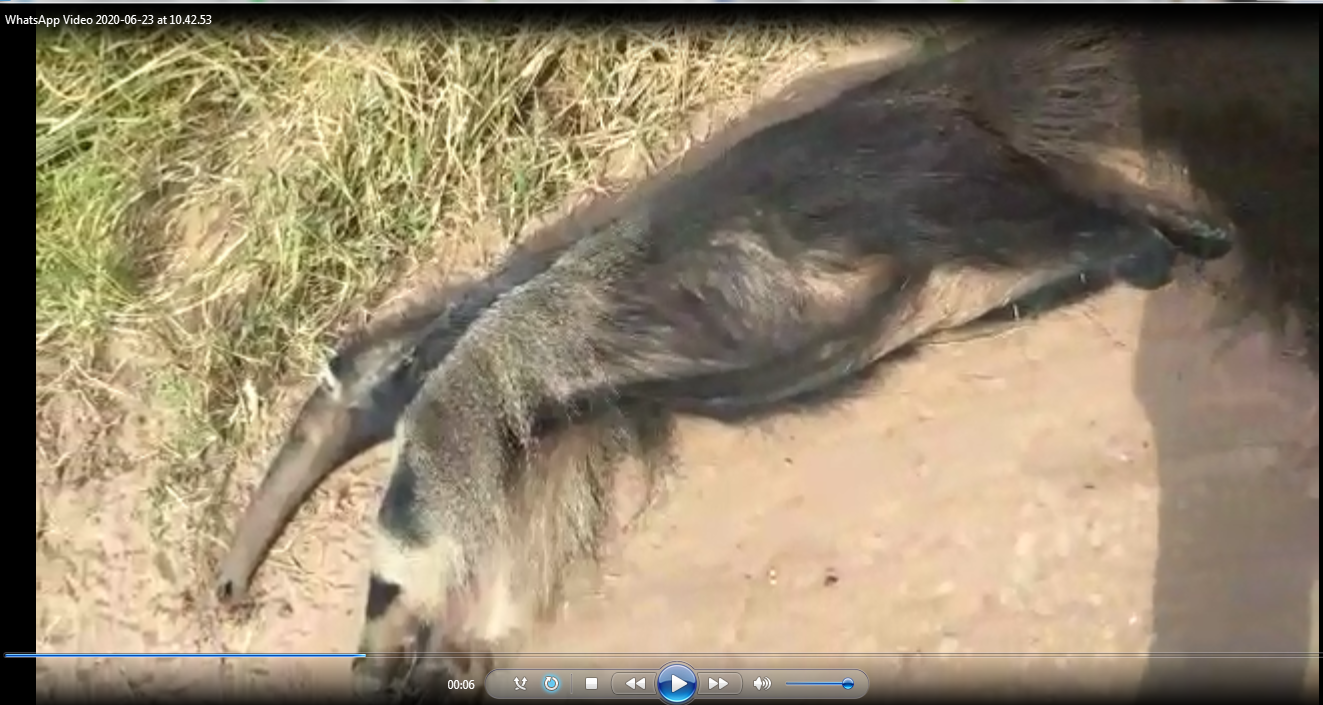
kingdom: Animalia
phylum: Chordata
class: Mammalia
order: Pilosa
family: Myrmecophagidae
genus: Myrmecophaga
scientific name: Myrmecophaga tridactyla
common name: Giant anteater
